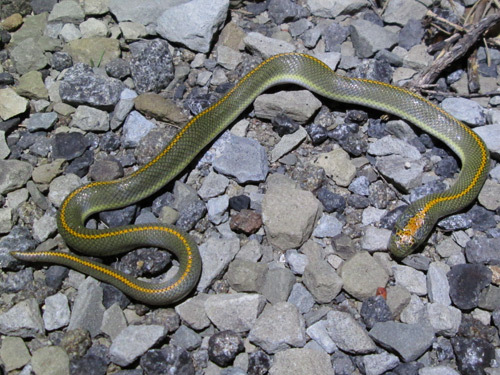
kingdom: Animalia
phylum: Chordata
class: Squamata
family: Lamprophiidae
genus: Lamprophis
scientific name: Lamprophis aurora
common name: Aurora house snake
